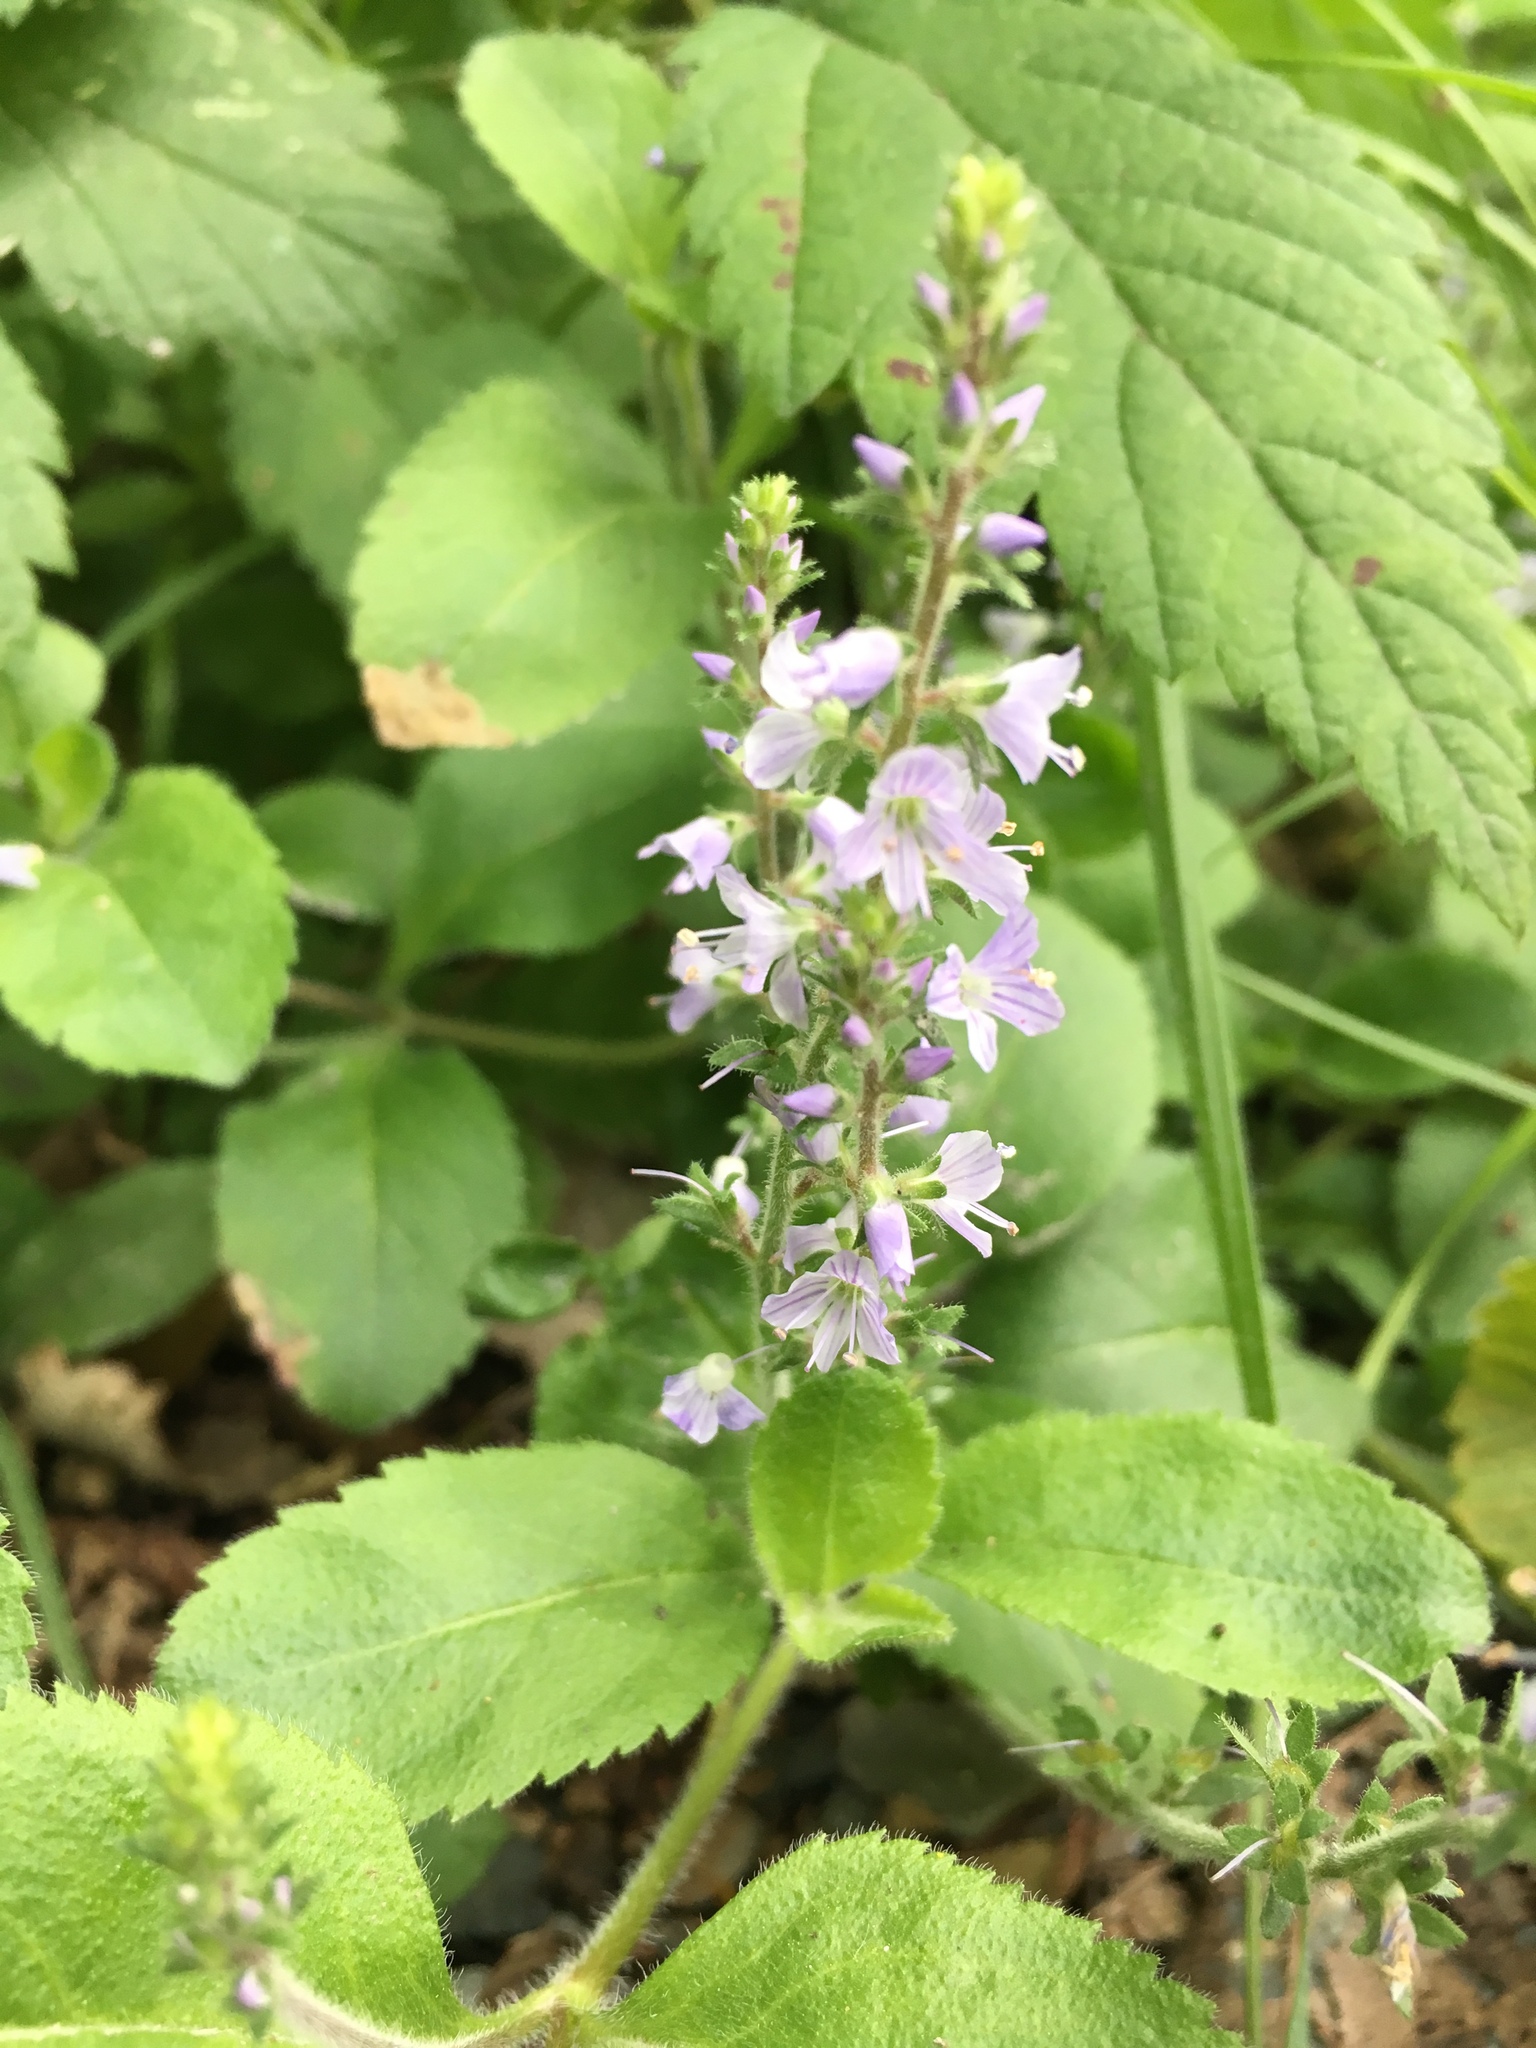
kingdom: Plantae
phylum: Tracheophyta
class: Magnoliopsida
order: Lamiales
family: Plantaginaceae
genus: Veronica
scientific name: Veronica officinalis
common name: Common speedwell
